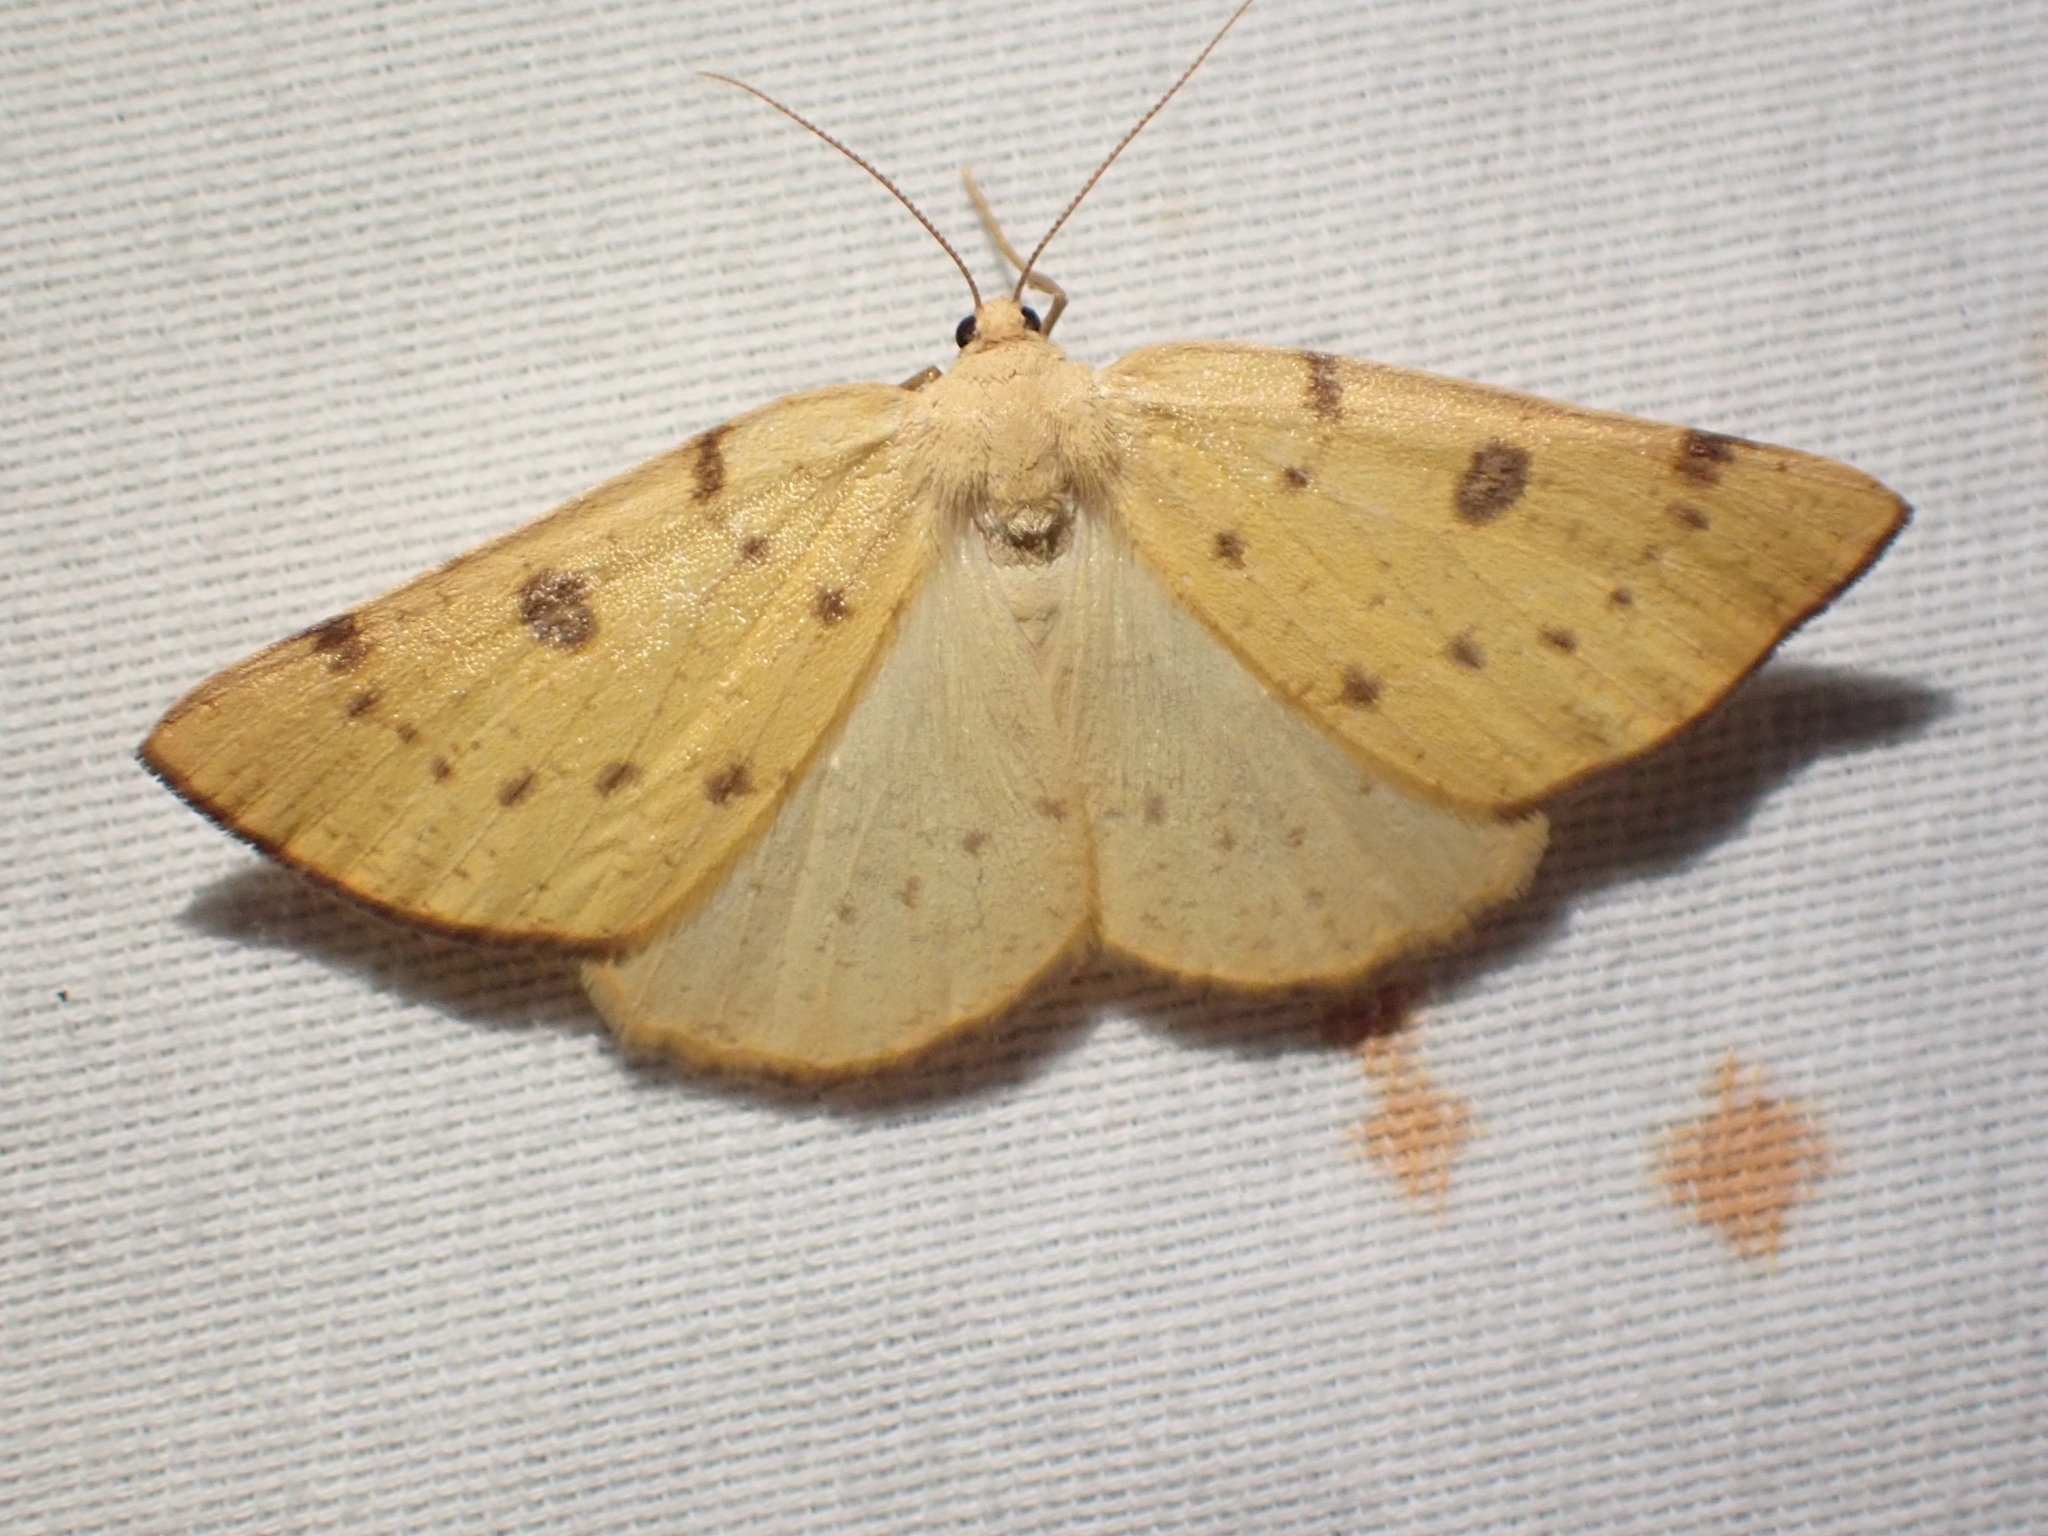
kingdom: Animalia
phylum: Arthropoda
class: Insecta
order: Lepidoptera
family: Geometridae
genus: Hesperumia
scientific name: Hesperumia sulphuraria
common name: Sulphur moth
